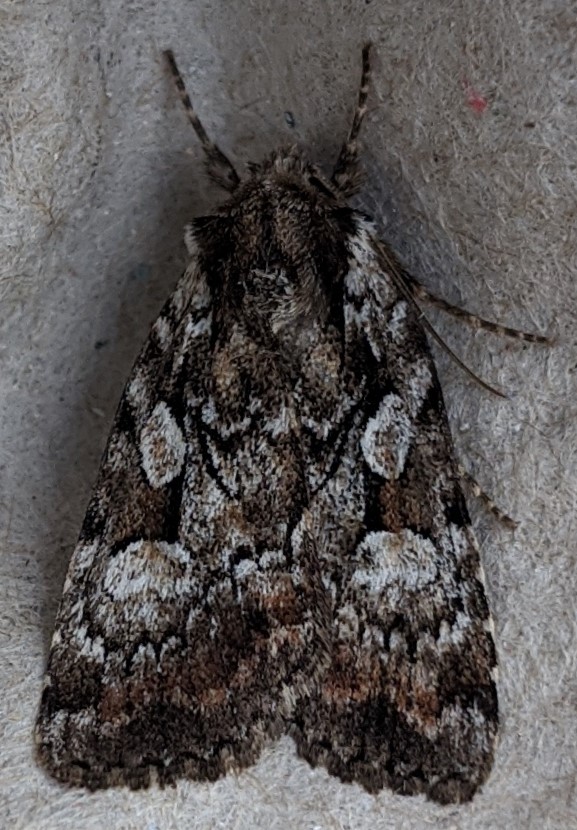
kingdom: Animalia
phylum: Arthropoda
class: Insecta
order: Lepidoptera
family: Noctuidae
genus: Aplectoides
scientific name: Aplectoides condita
